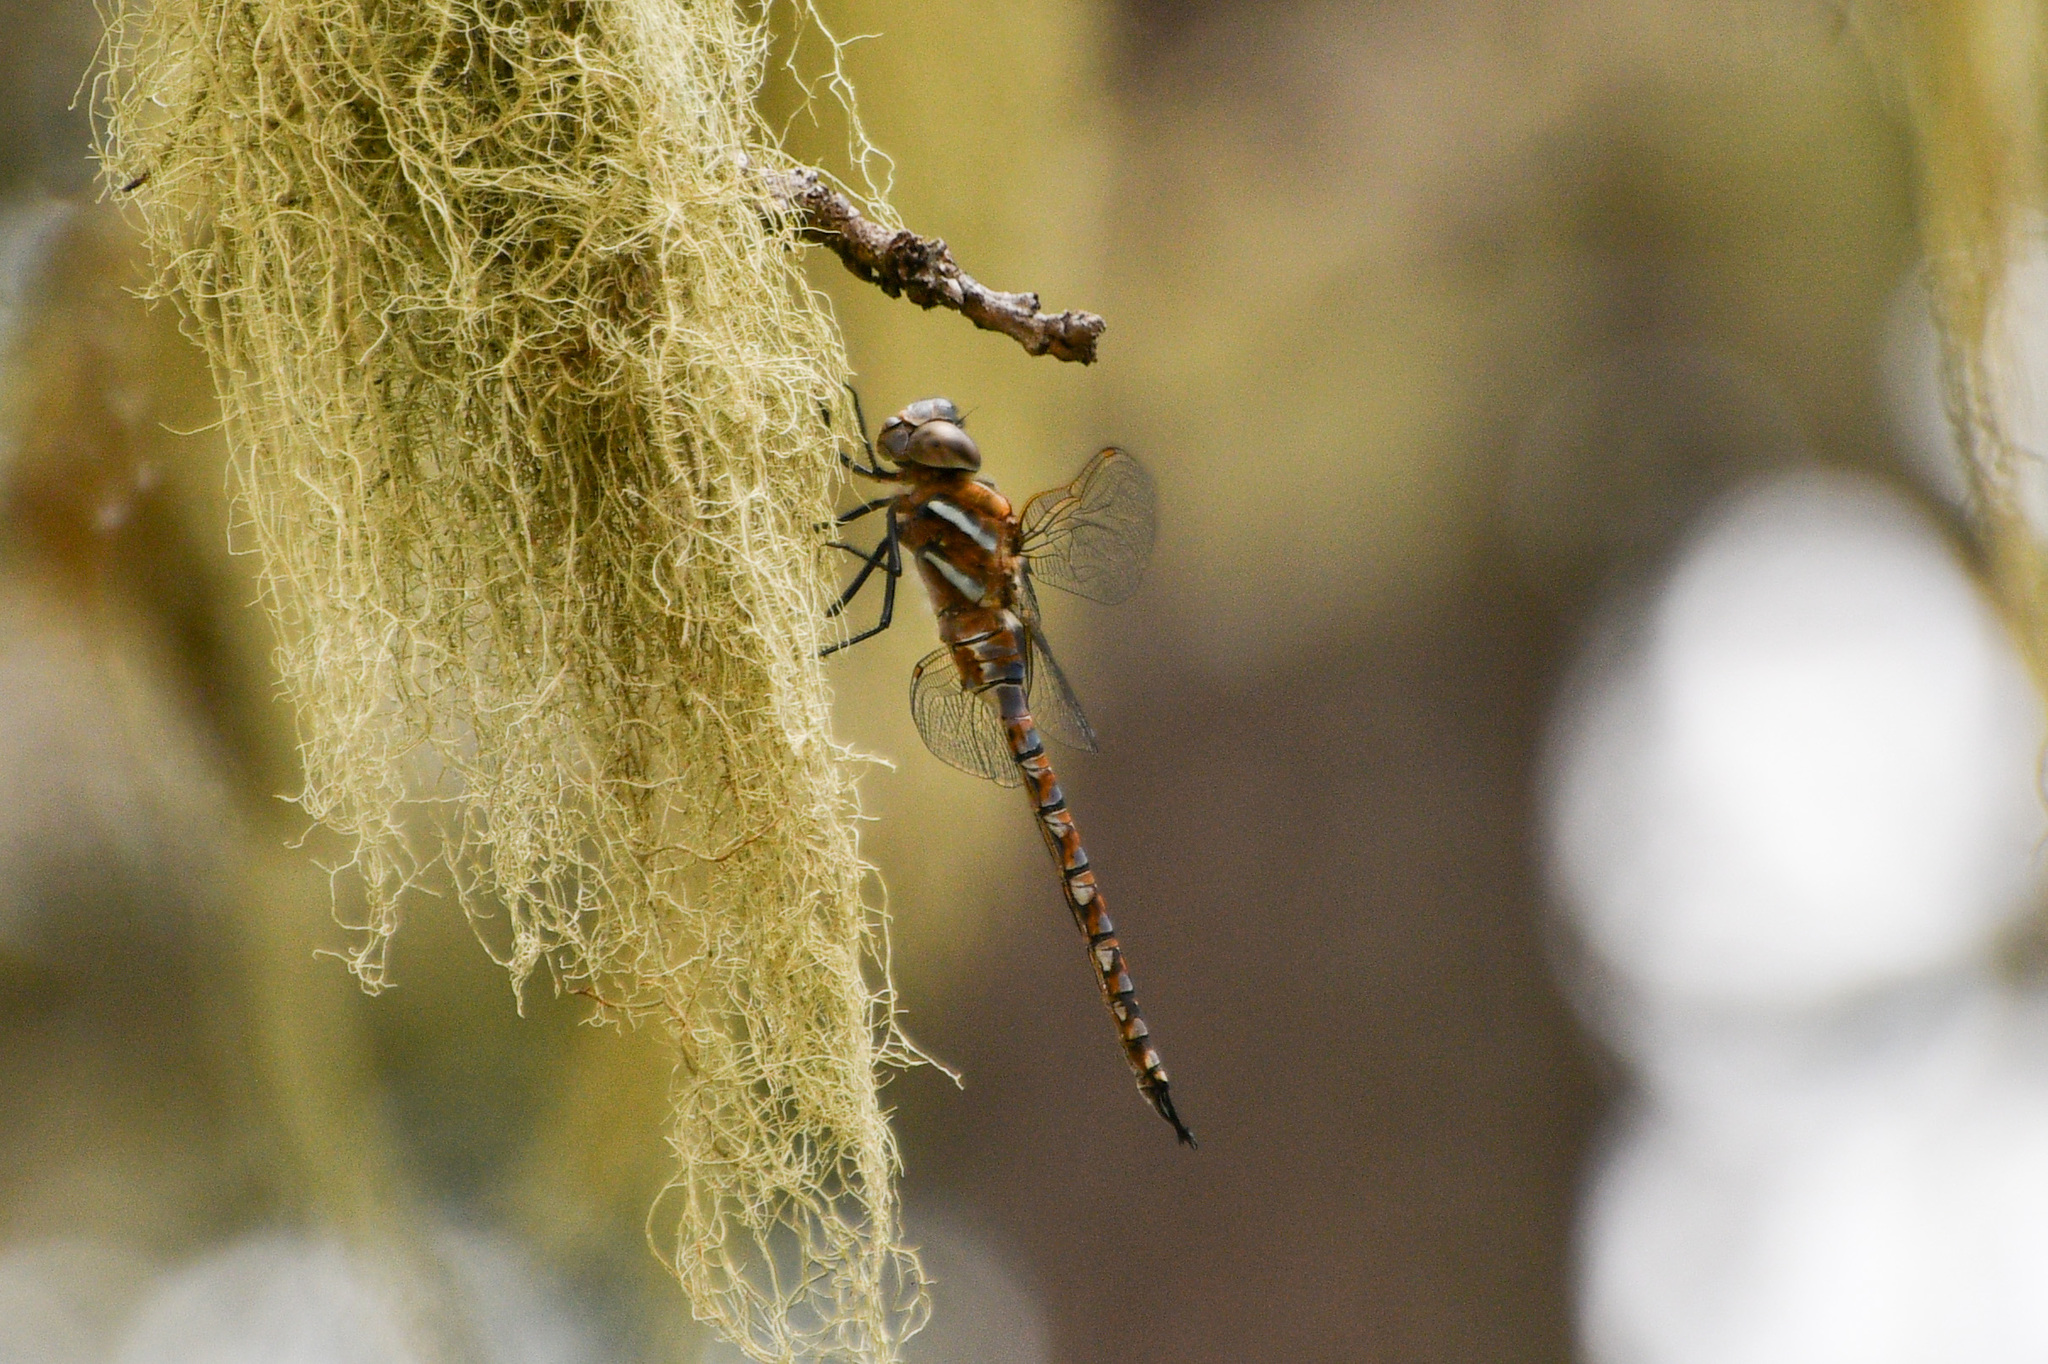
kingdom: Animalia
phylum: Arthropoda
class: Insecta
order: Odonata
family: Aeshnidae
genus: Rhionaeschna
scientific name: Rhionaeschna multicolor
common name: Blue-eyed darner
